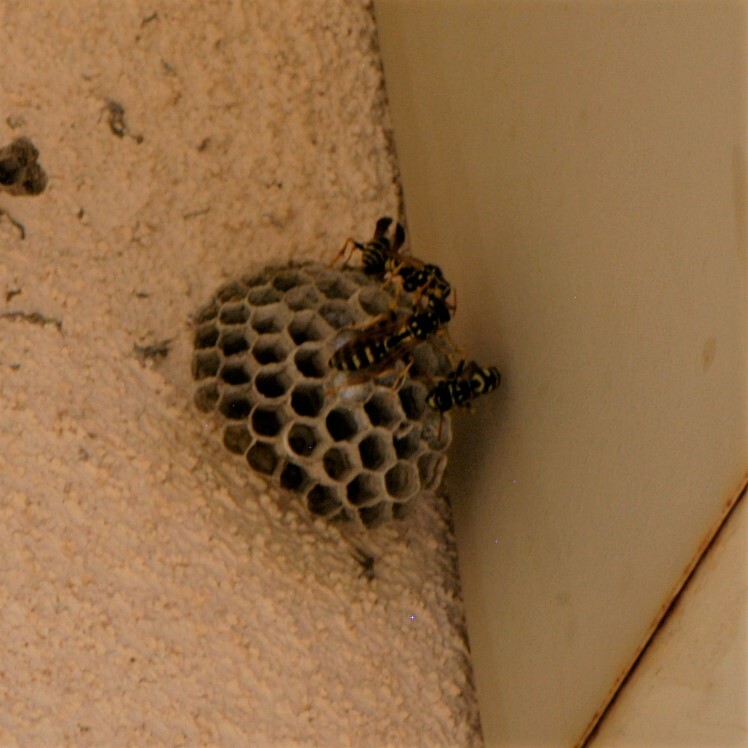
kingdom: Animalia
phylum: Arthropoda
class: Insecta
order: Hymenoptera
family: Eumenidae
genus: Polistes
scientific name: Polistes dominula
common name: Paper wasp
